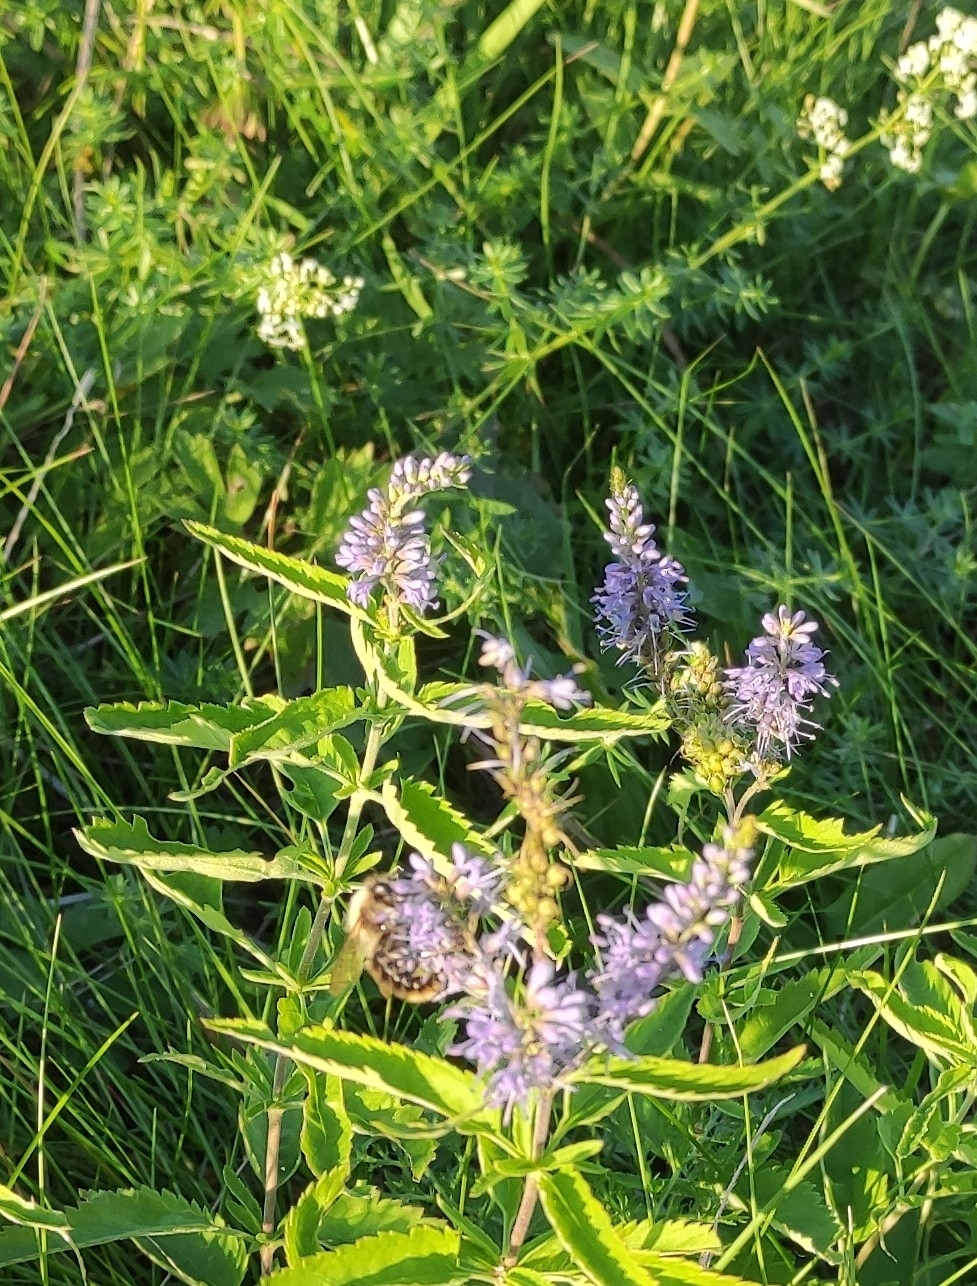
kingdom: Plantae
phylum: Tracheophyta
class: Magnoliopsida
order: Lamiales
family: Plantaginaceae
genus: Veronica
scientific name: Veronica longifolia
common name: Garden speedwell
